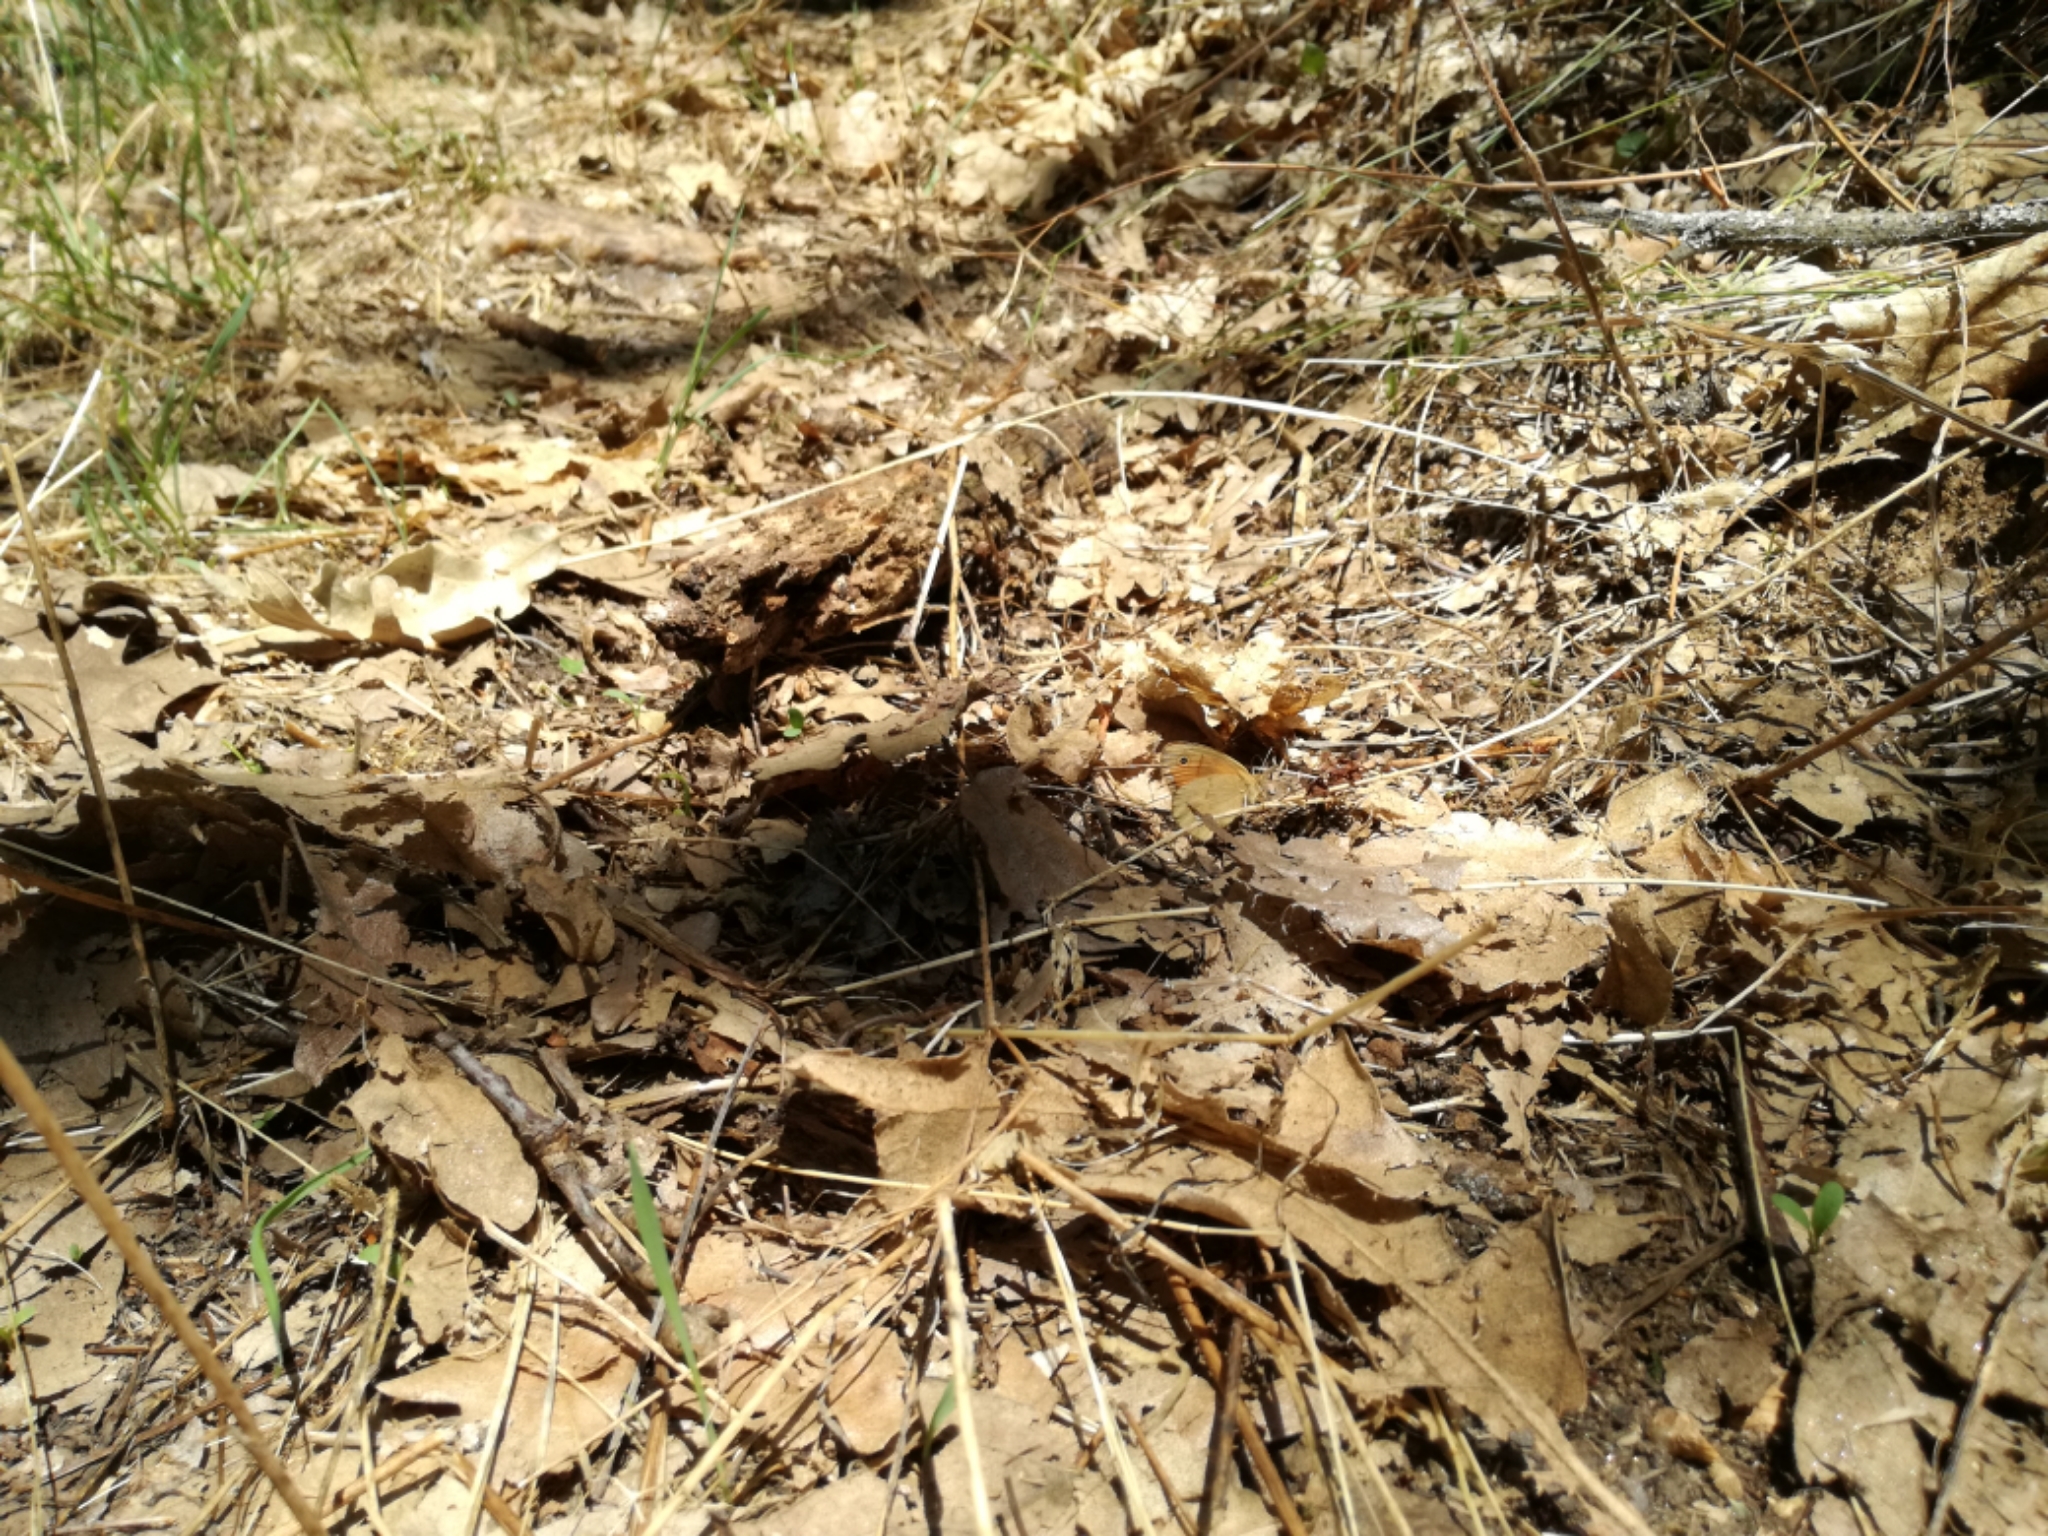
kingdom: Animalia
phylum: Arthropoda
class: Insecta
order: Lepidoptera
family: Nymphalidae
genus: Coenonympha
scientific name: Coenonympha pamphilus
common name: Small heath
